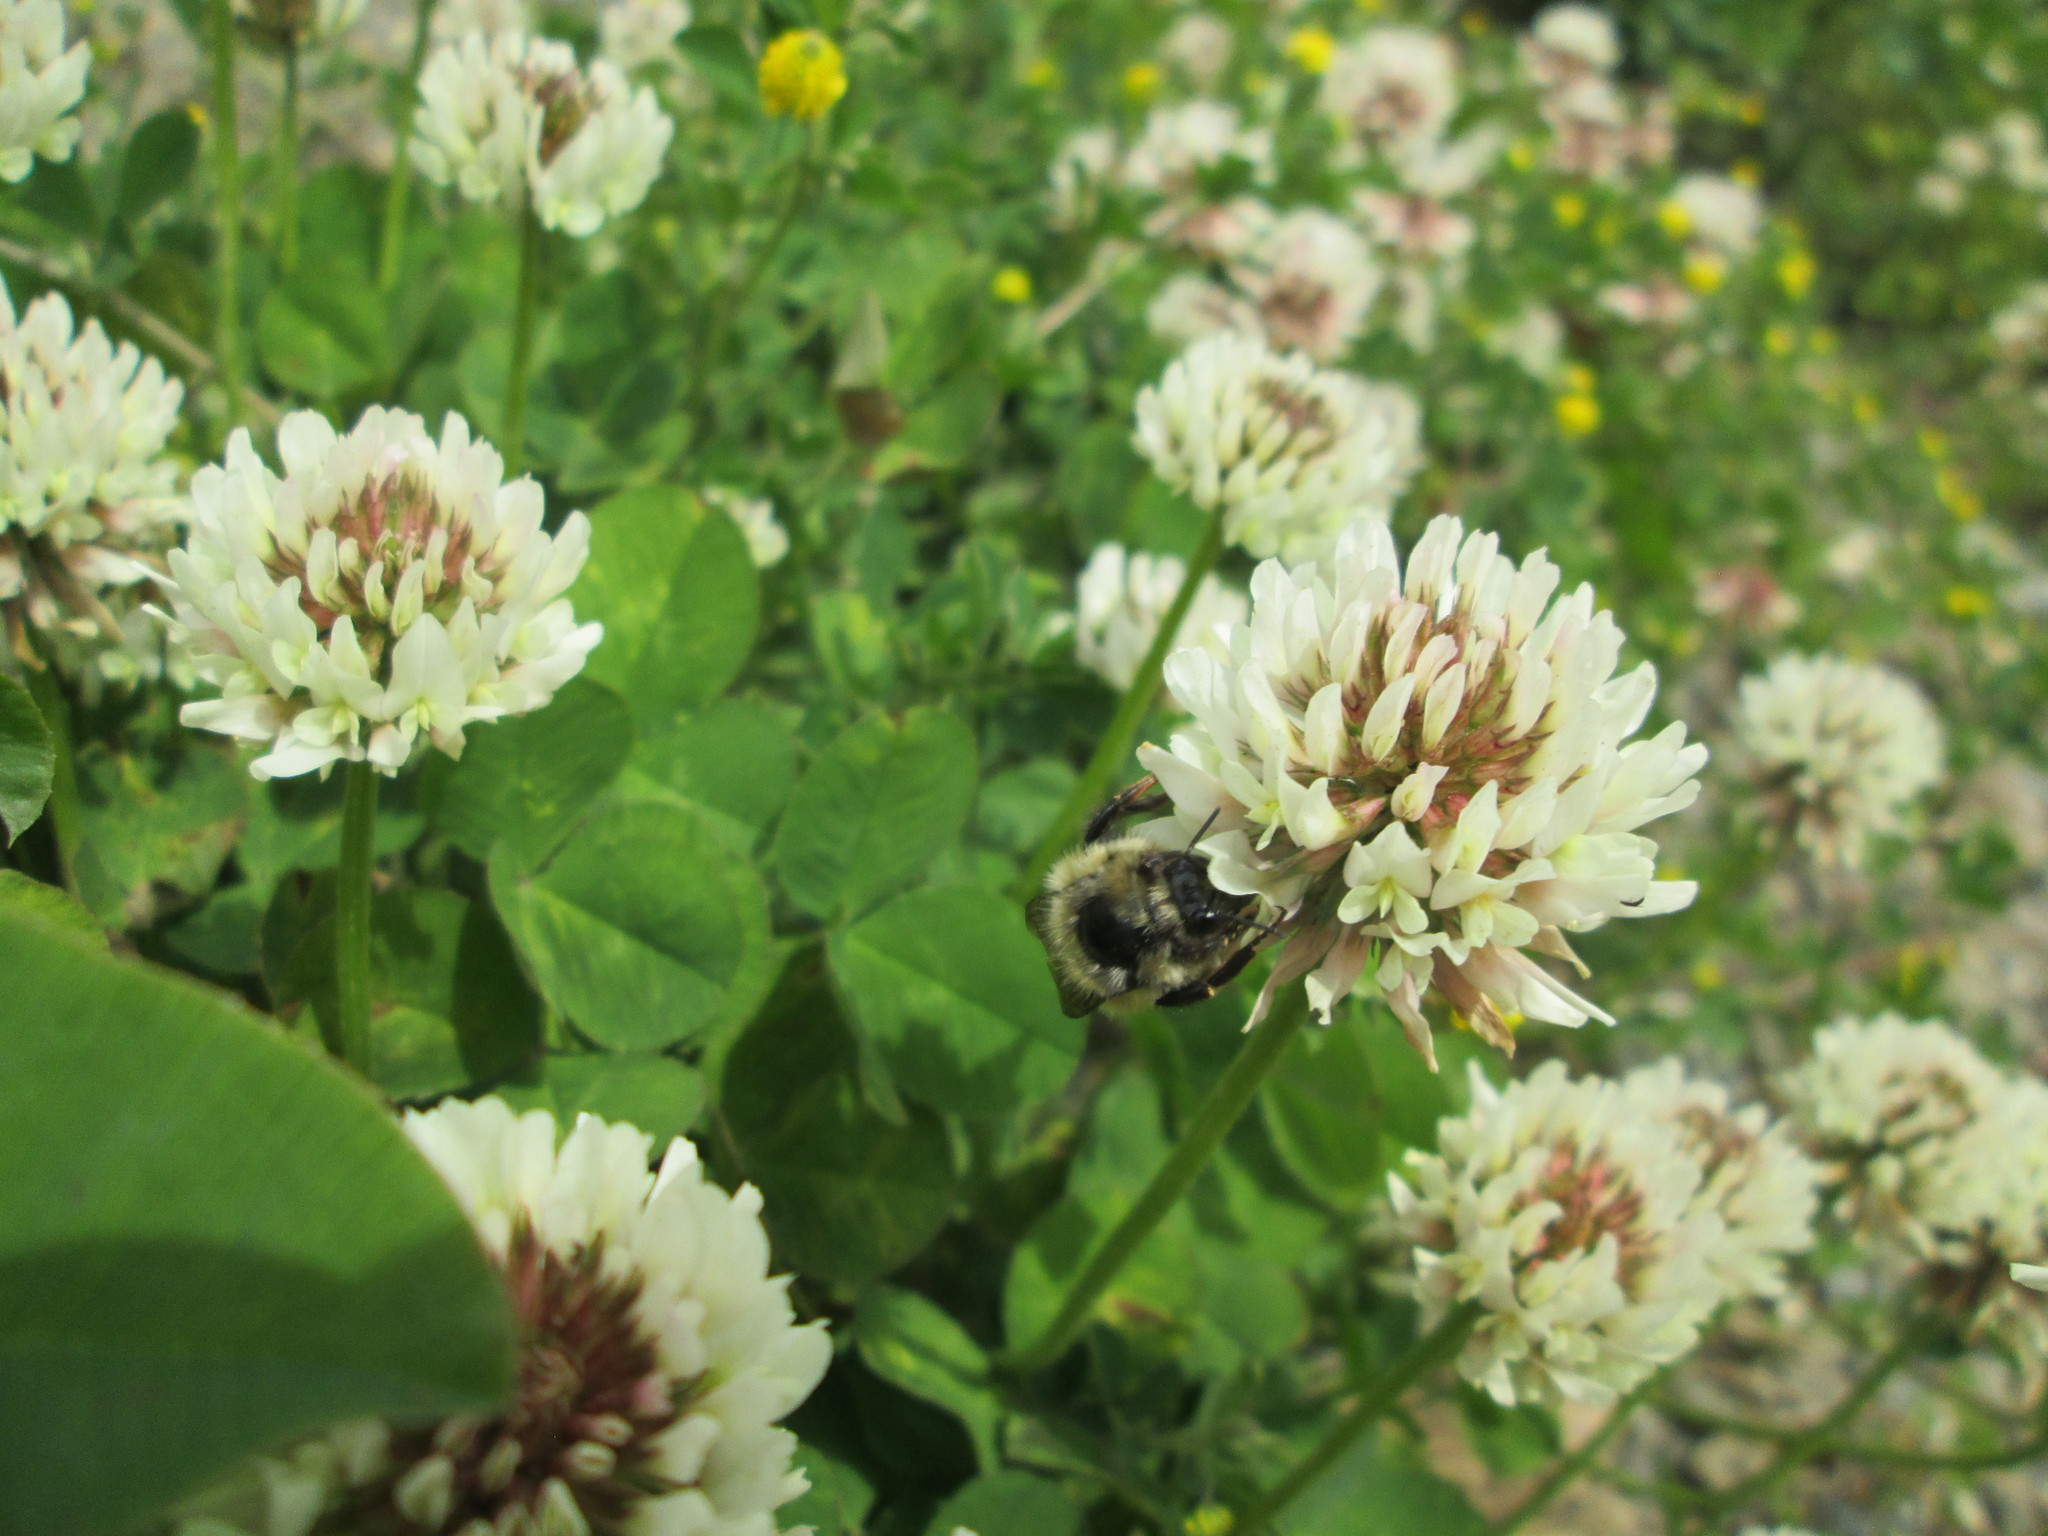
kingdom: Plantae
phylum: Tracheophyta
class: Magnoliopsida
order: Fabales
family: Fabaceae
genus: Trifolium
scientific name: Trifolium repens
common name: White clover
